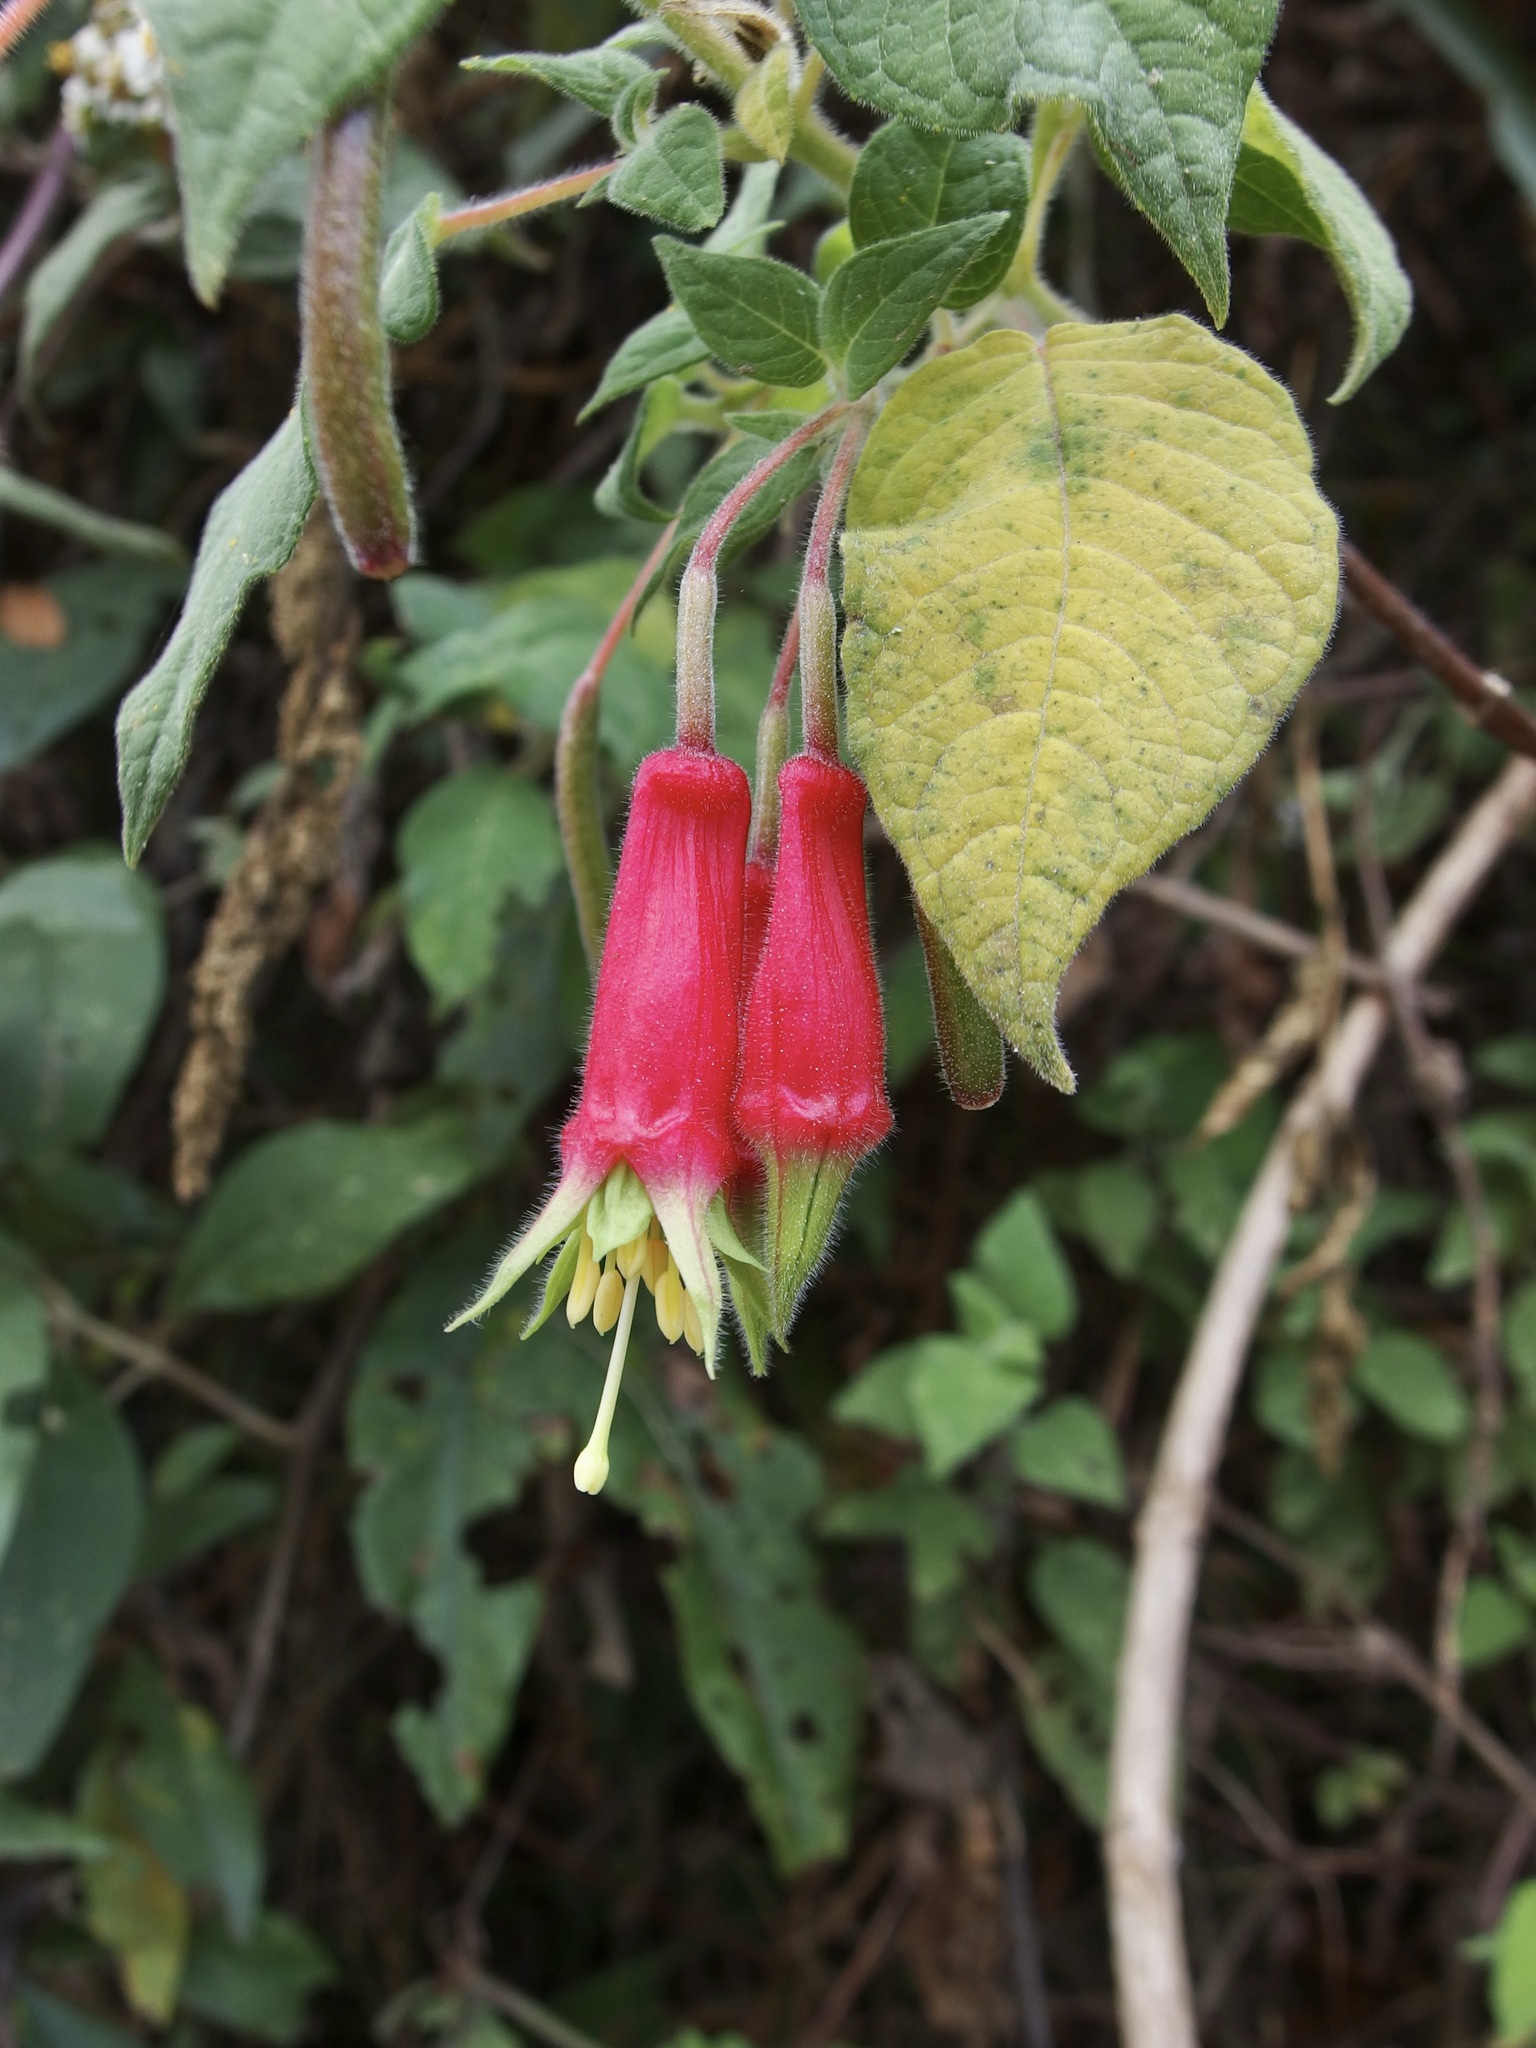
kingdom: Plantae
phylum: Tracheophyta
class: Magnoliopsida
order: Myrtales
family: Onagraceae
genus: Fuchsia
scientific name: Fuchsia splendens
